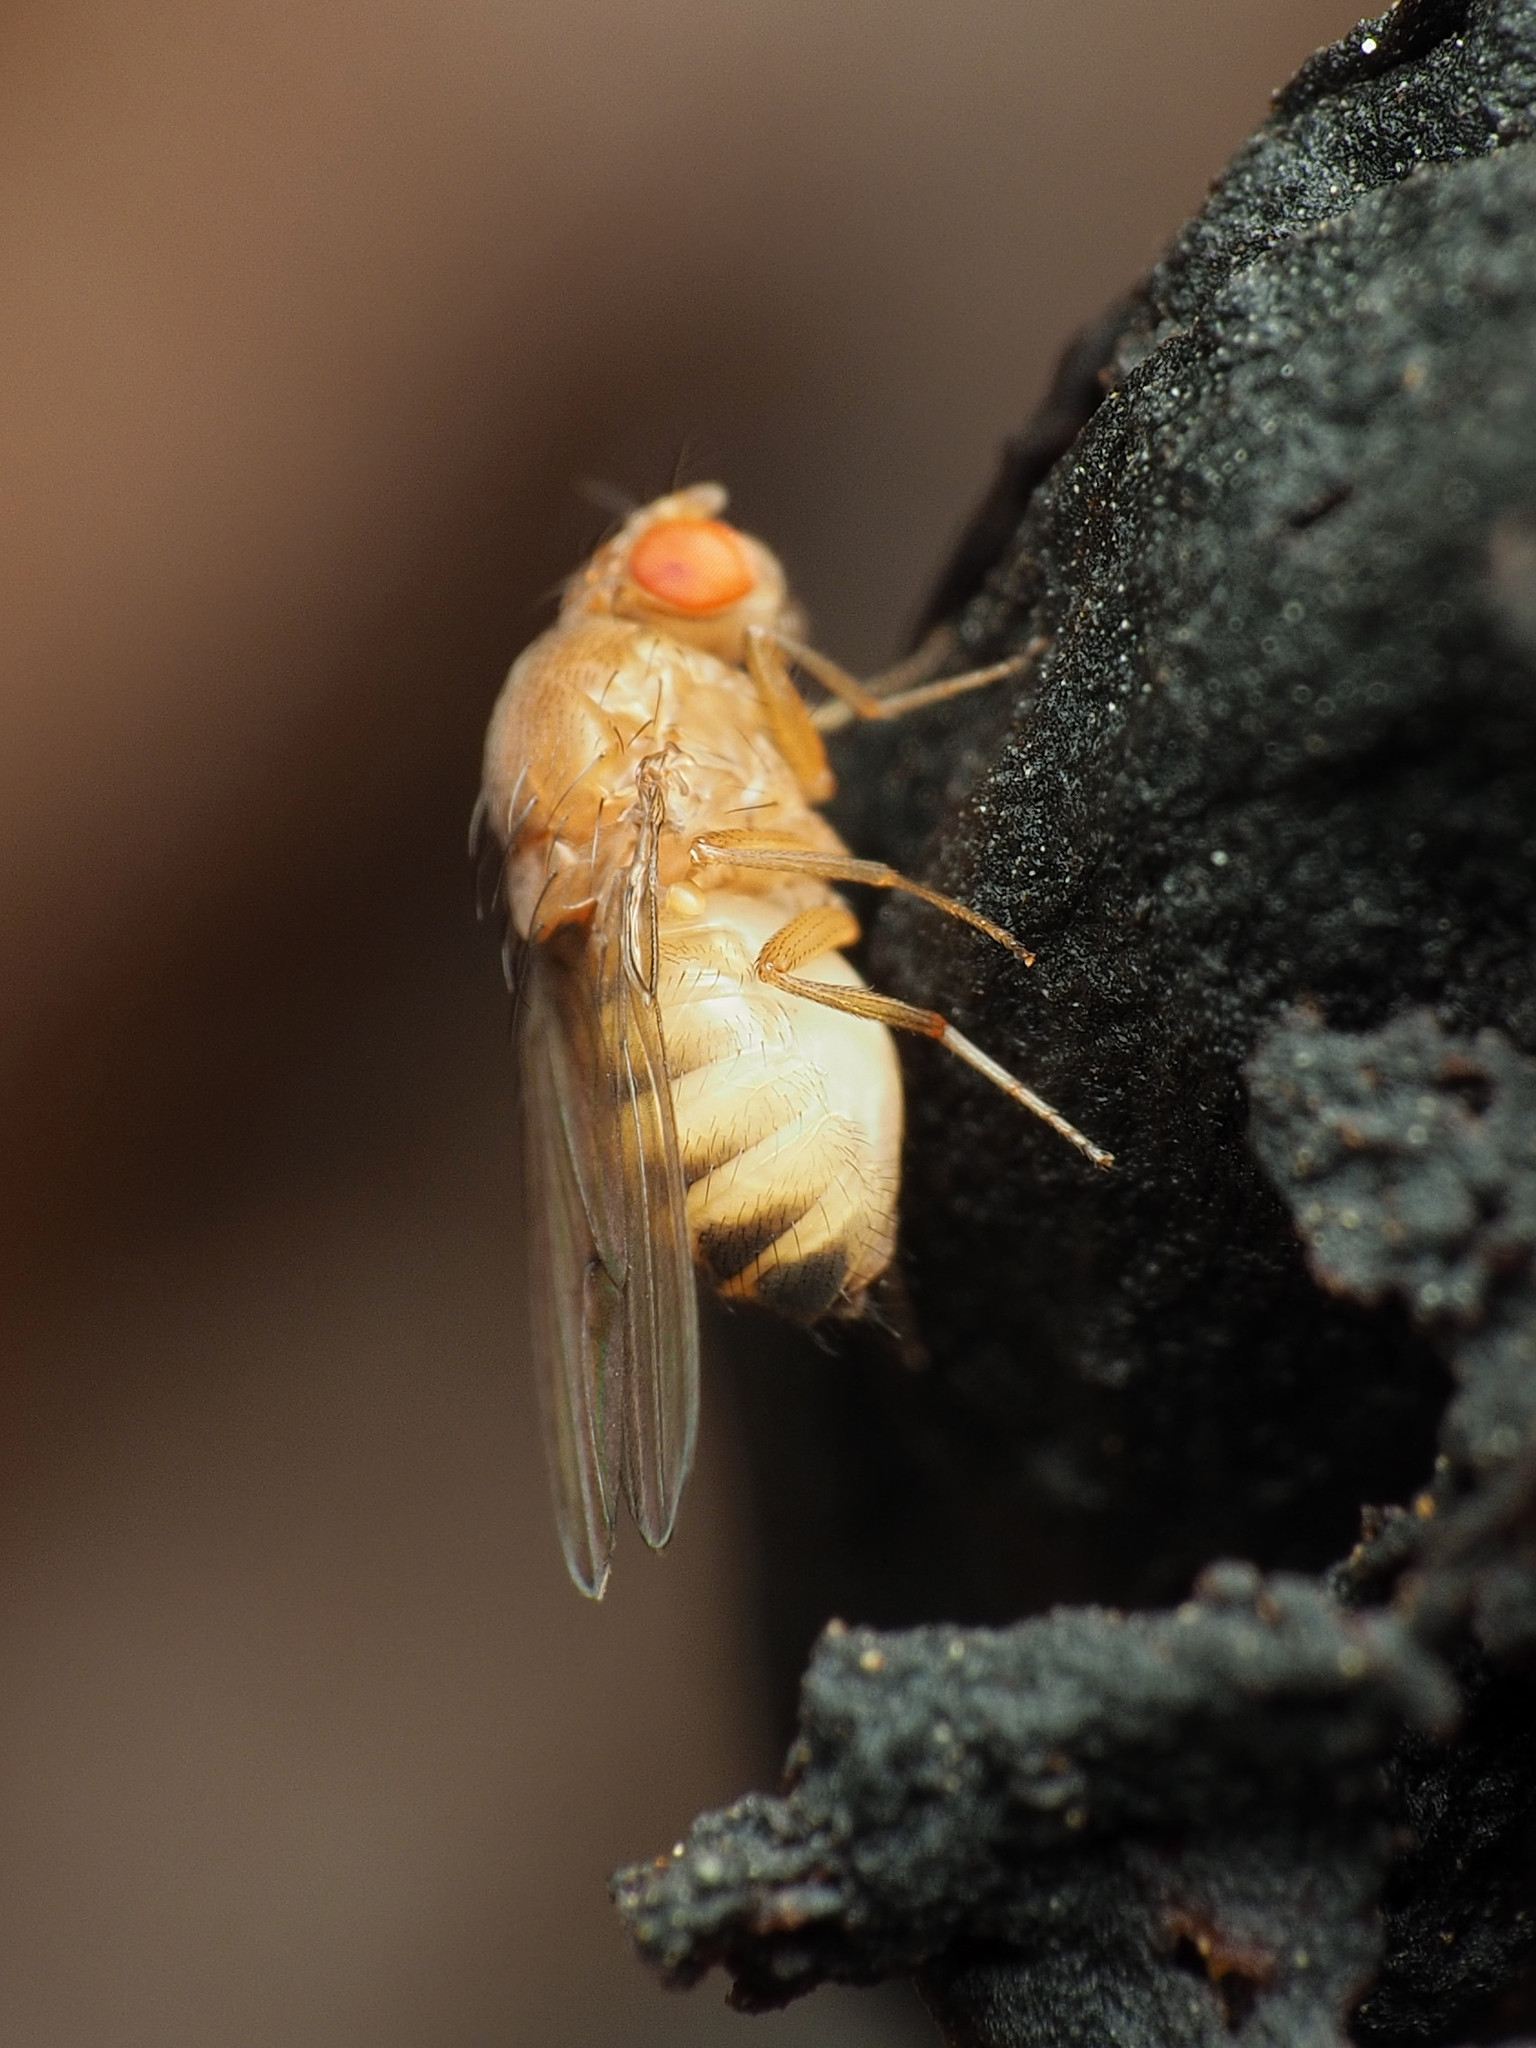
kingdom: Animalia
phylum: Arthropoda
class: Insecta
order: Diptera
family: Drosophilidae
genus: Drosophila
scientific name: Drosophila immigrans
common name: Pomace fly
